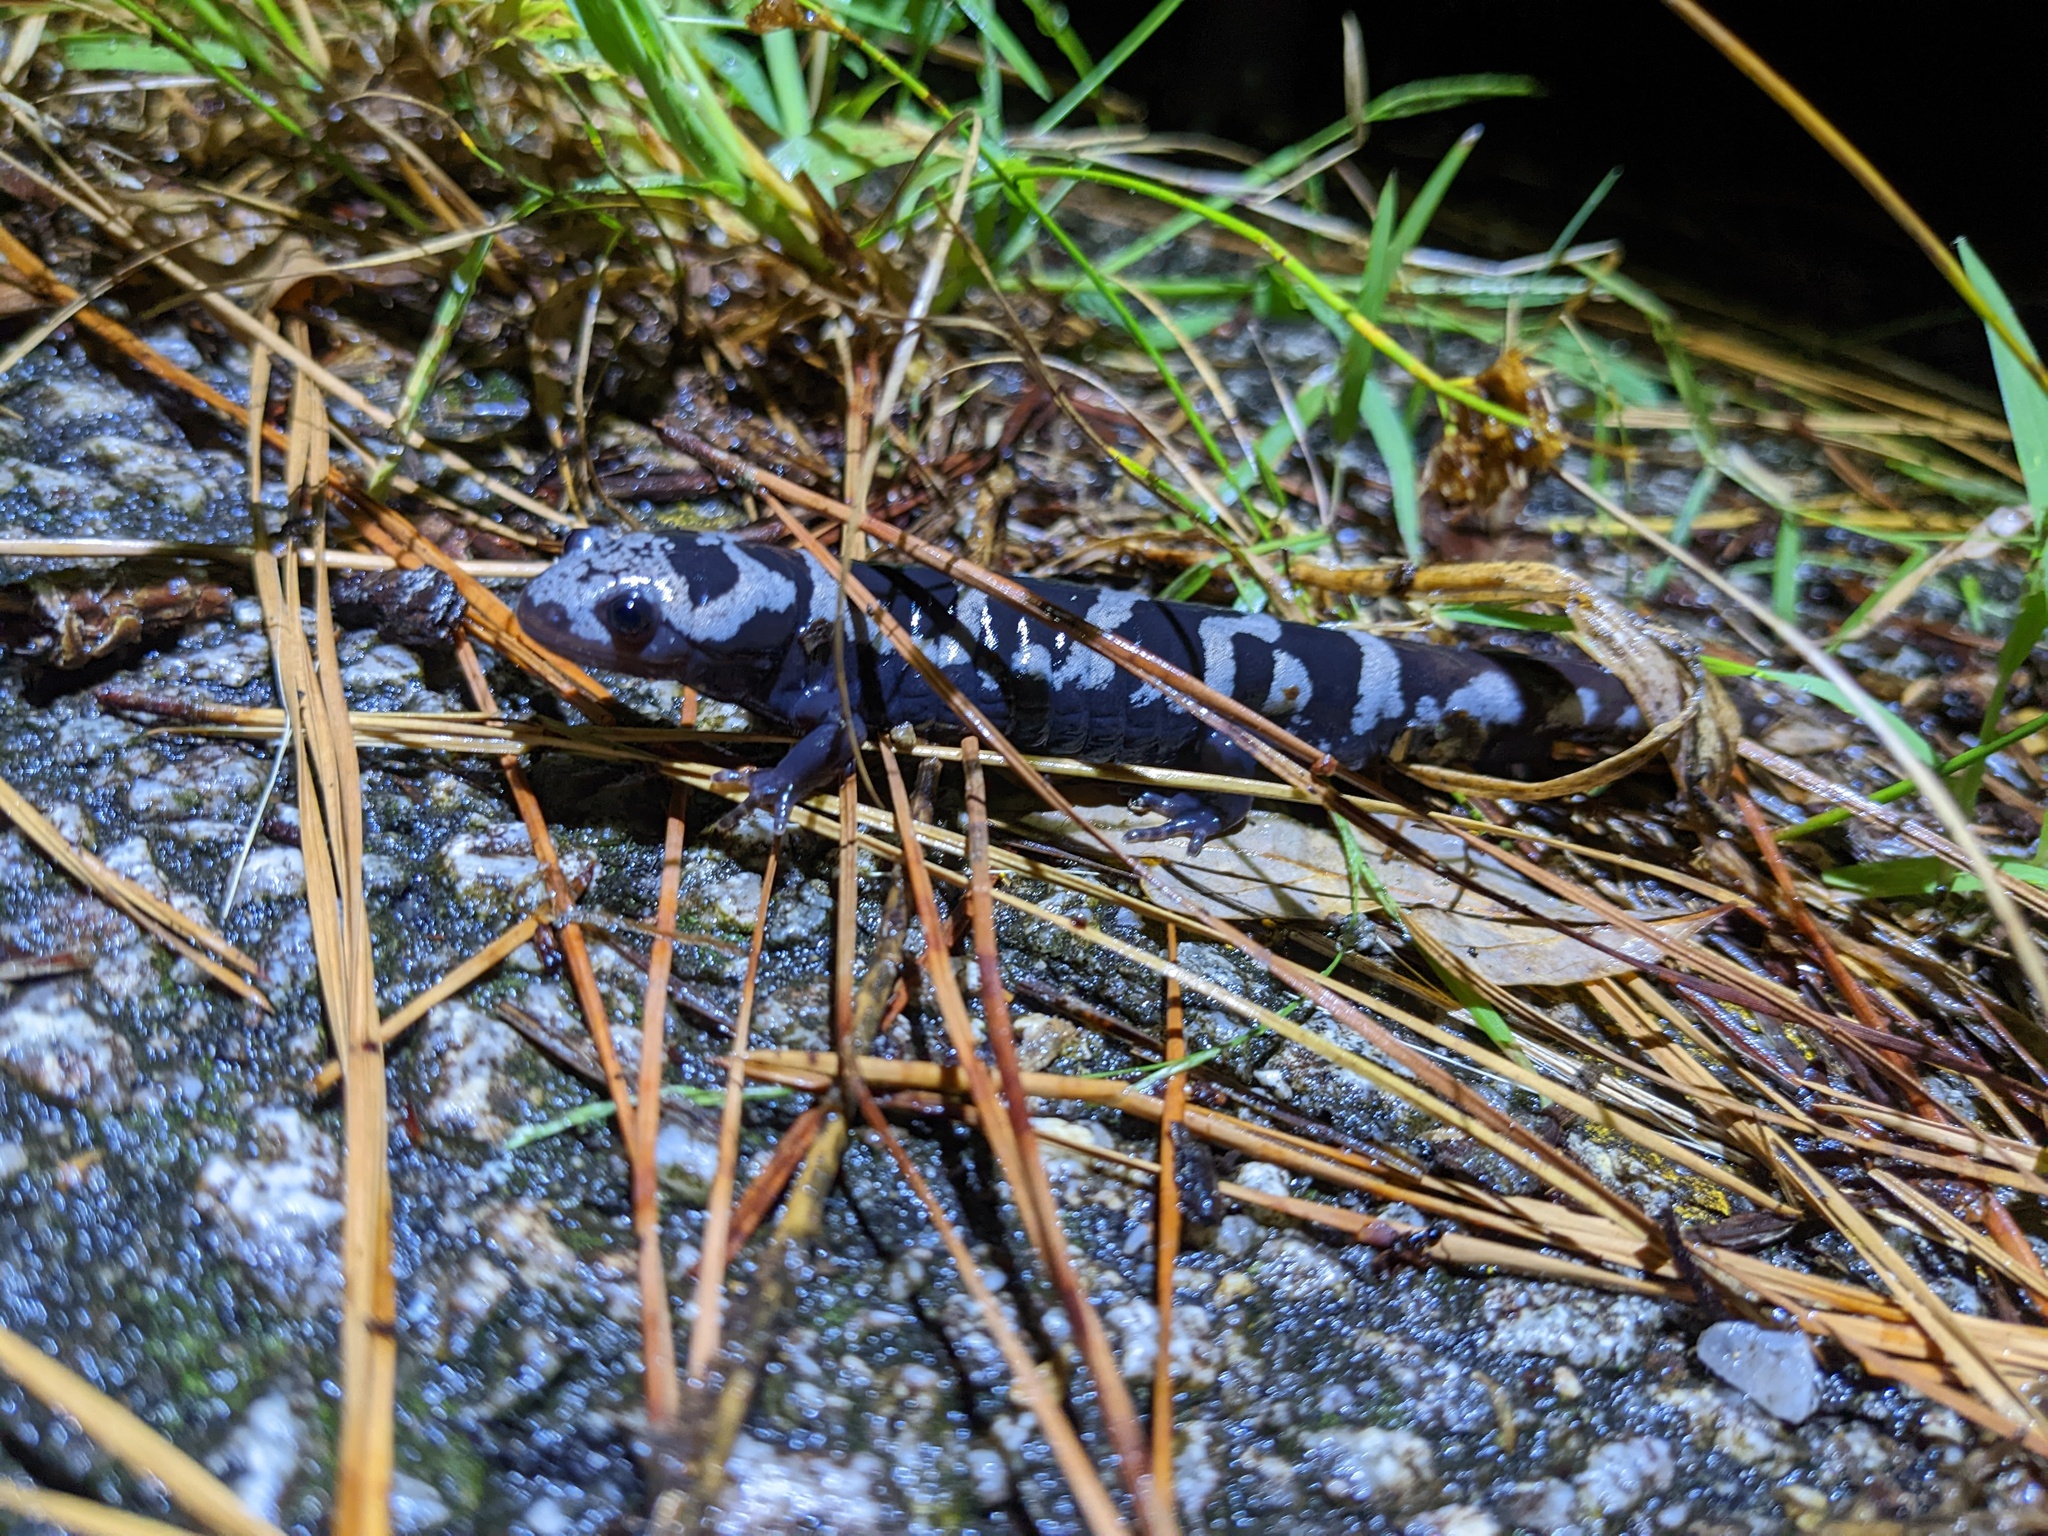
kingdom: Animalia
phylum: Chordata
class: Amphibia
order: Caudata
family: Ambystomatidae
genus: Ambystoma
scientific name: Ambystoma opacum
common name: Marbled salamander
